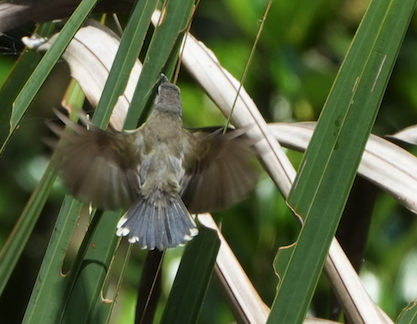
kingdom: Animalia
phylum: Chordata
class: Aves
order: Passeriformes
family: Nectariniidae
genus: Leptocoma
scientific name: Leptocoma calcostetha
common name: Copper-throated sunbird
